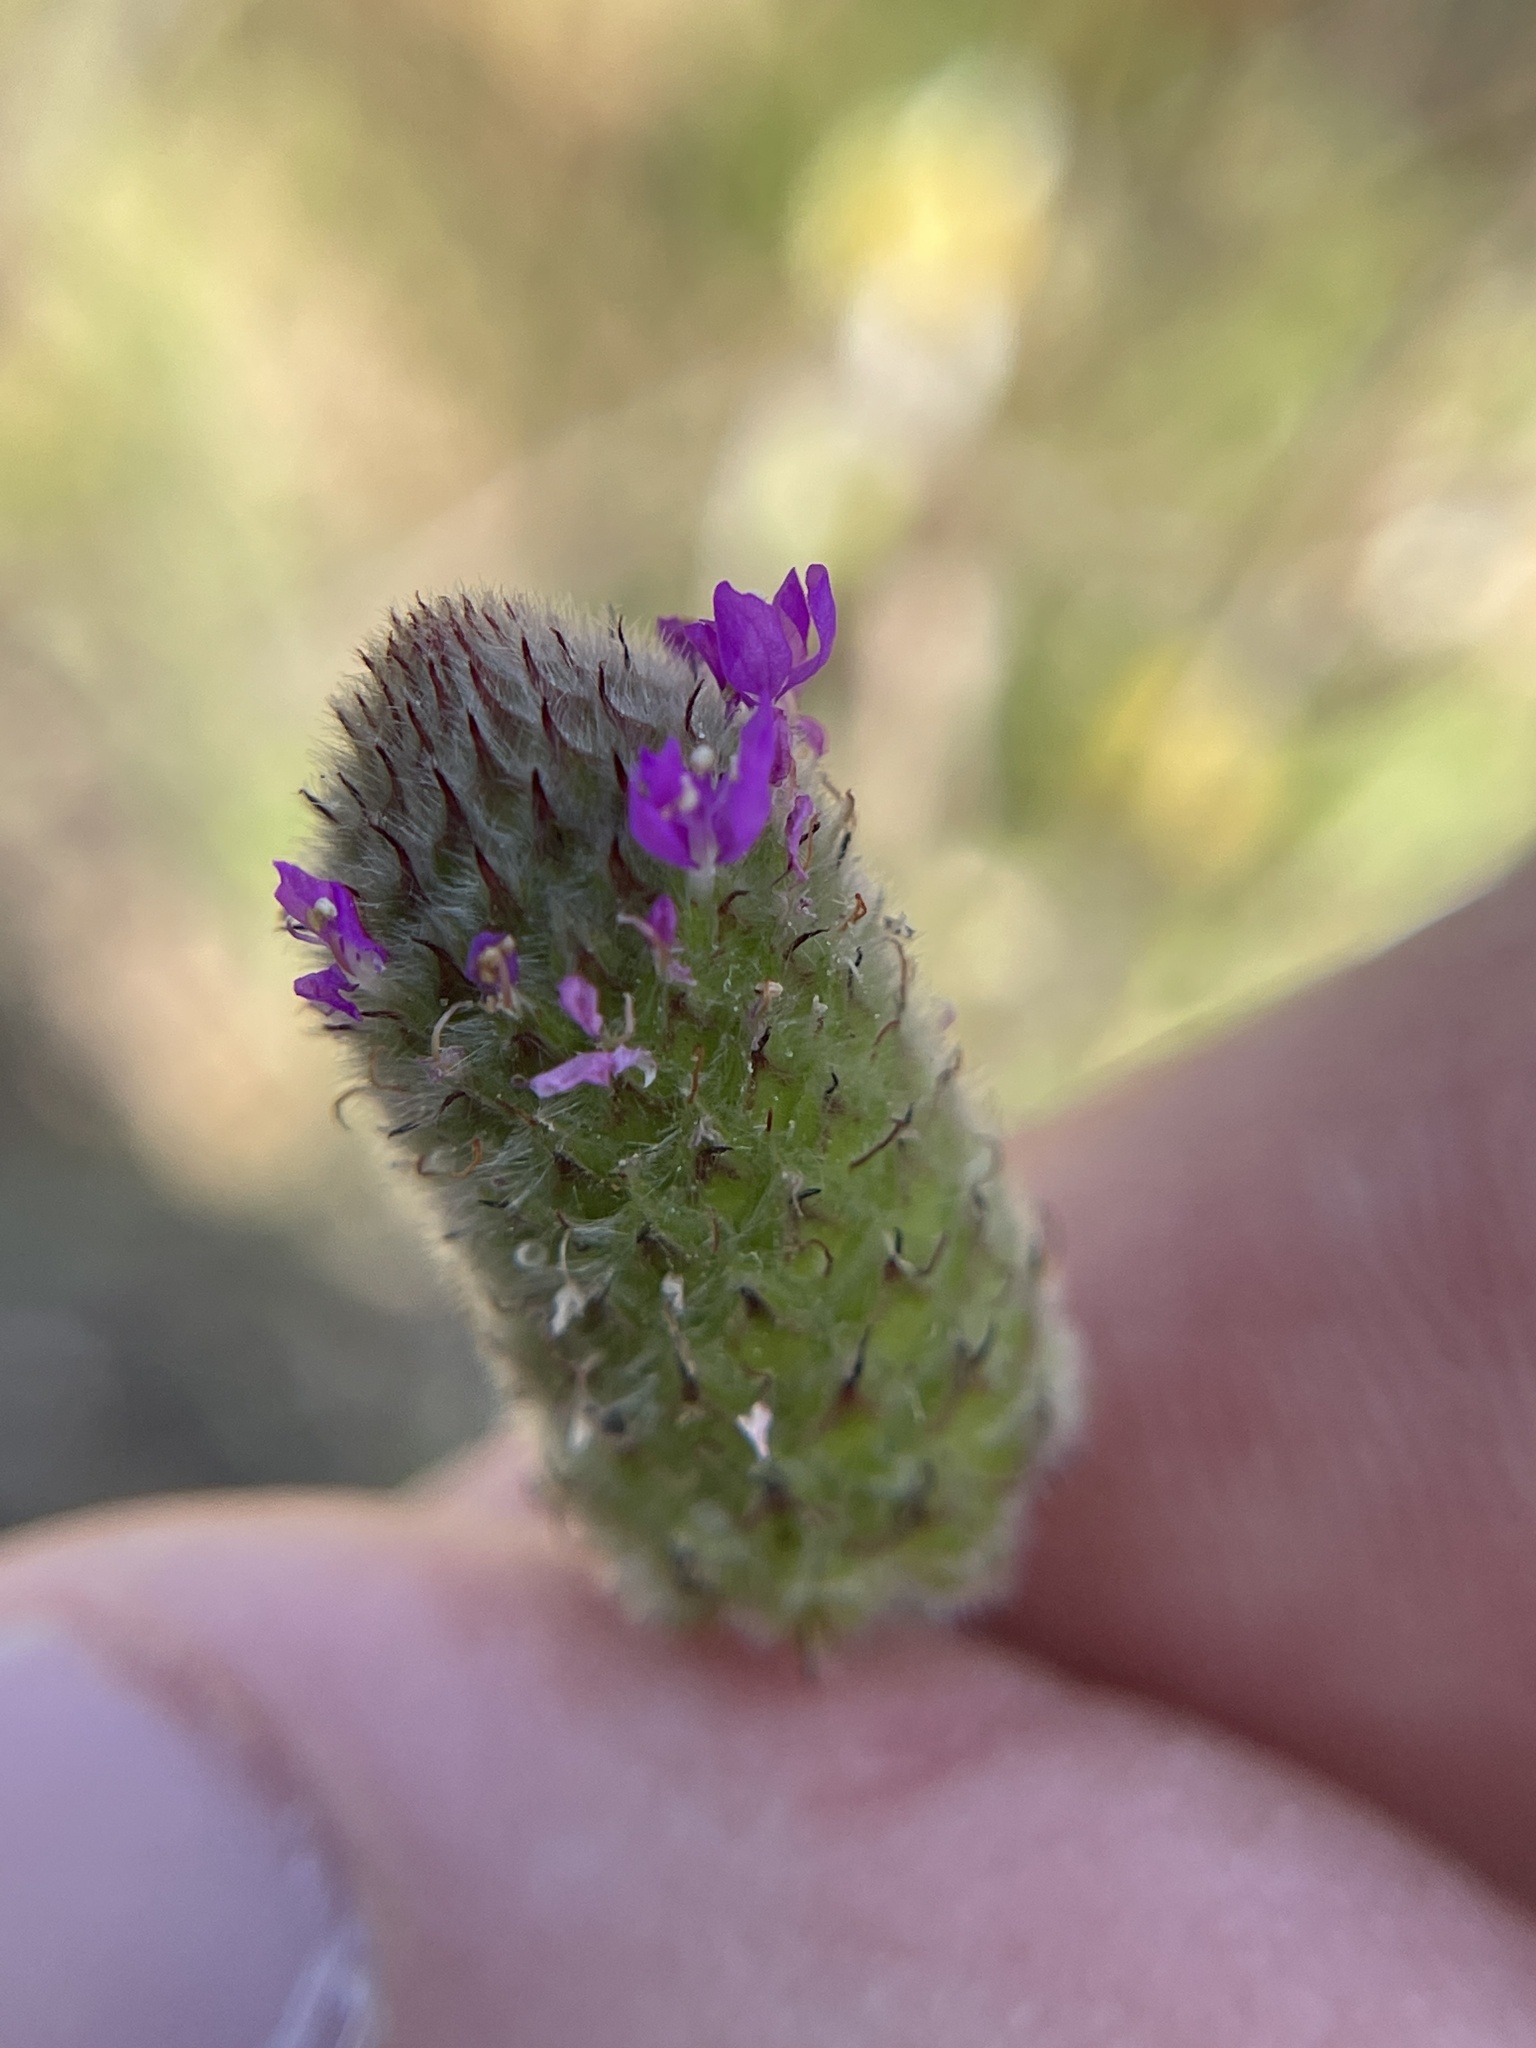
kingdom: Plantae
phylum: Tracheophyta
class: Magnoliopsida
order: Fabales
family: Fabaceae
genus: Dalea
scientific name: Dalea emarginata
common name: Wedgeleaf prairie clover
